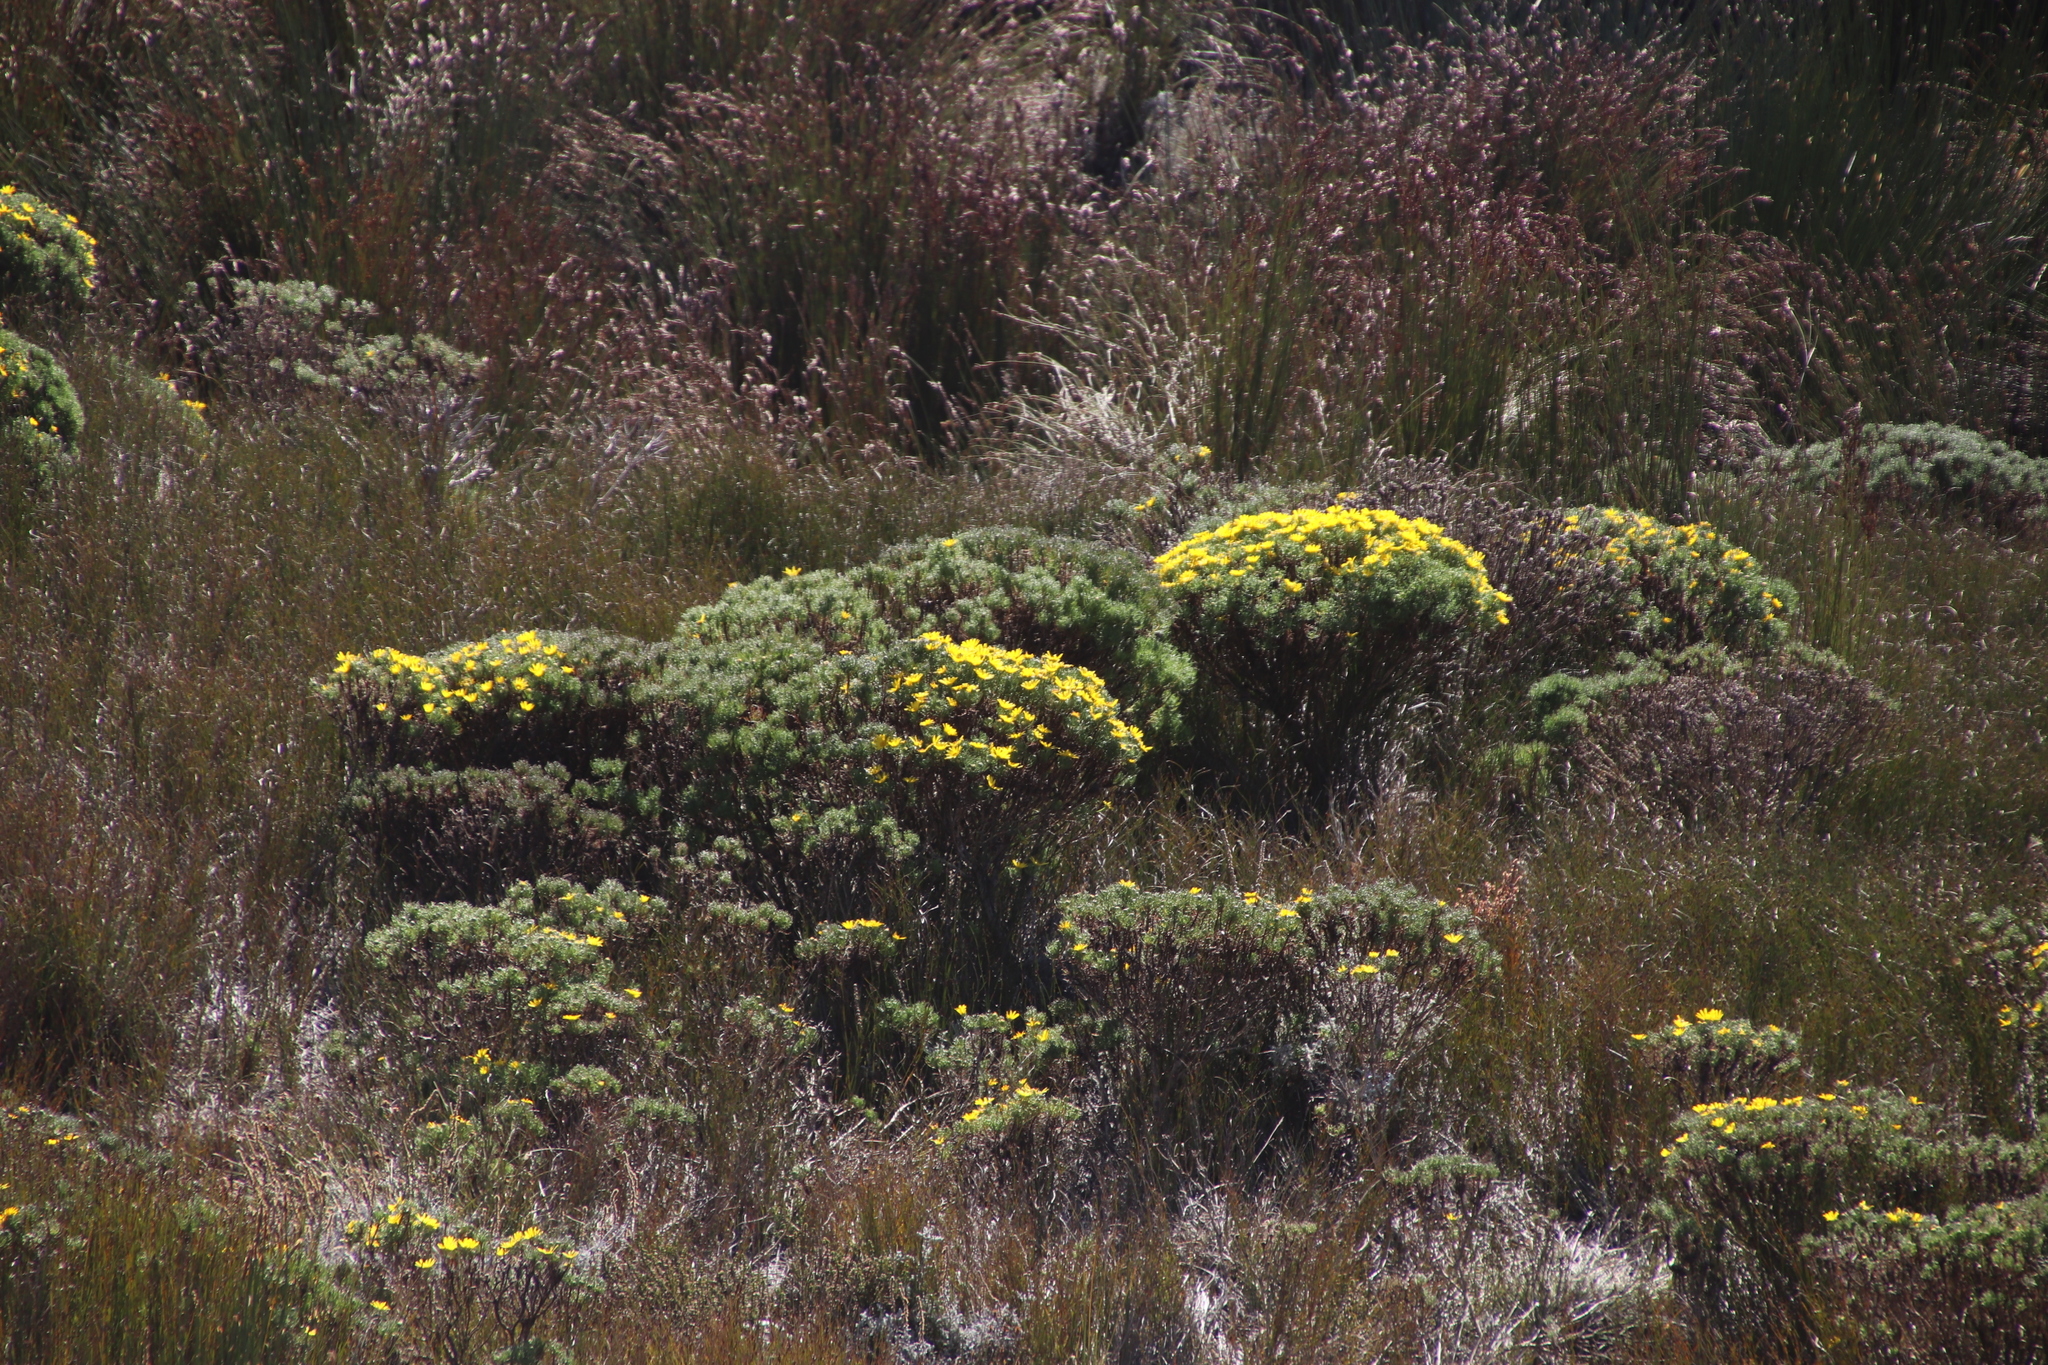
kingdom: Plantae
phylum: Tracheophyta
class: Magnoliopsida
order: Asterales
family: Asteraceae
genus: Euryops
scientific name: Euryops abrotanifolius
